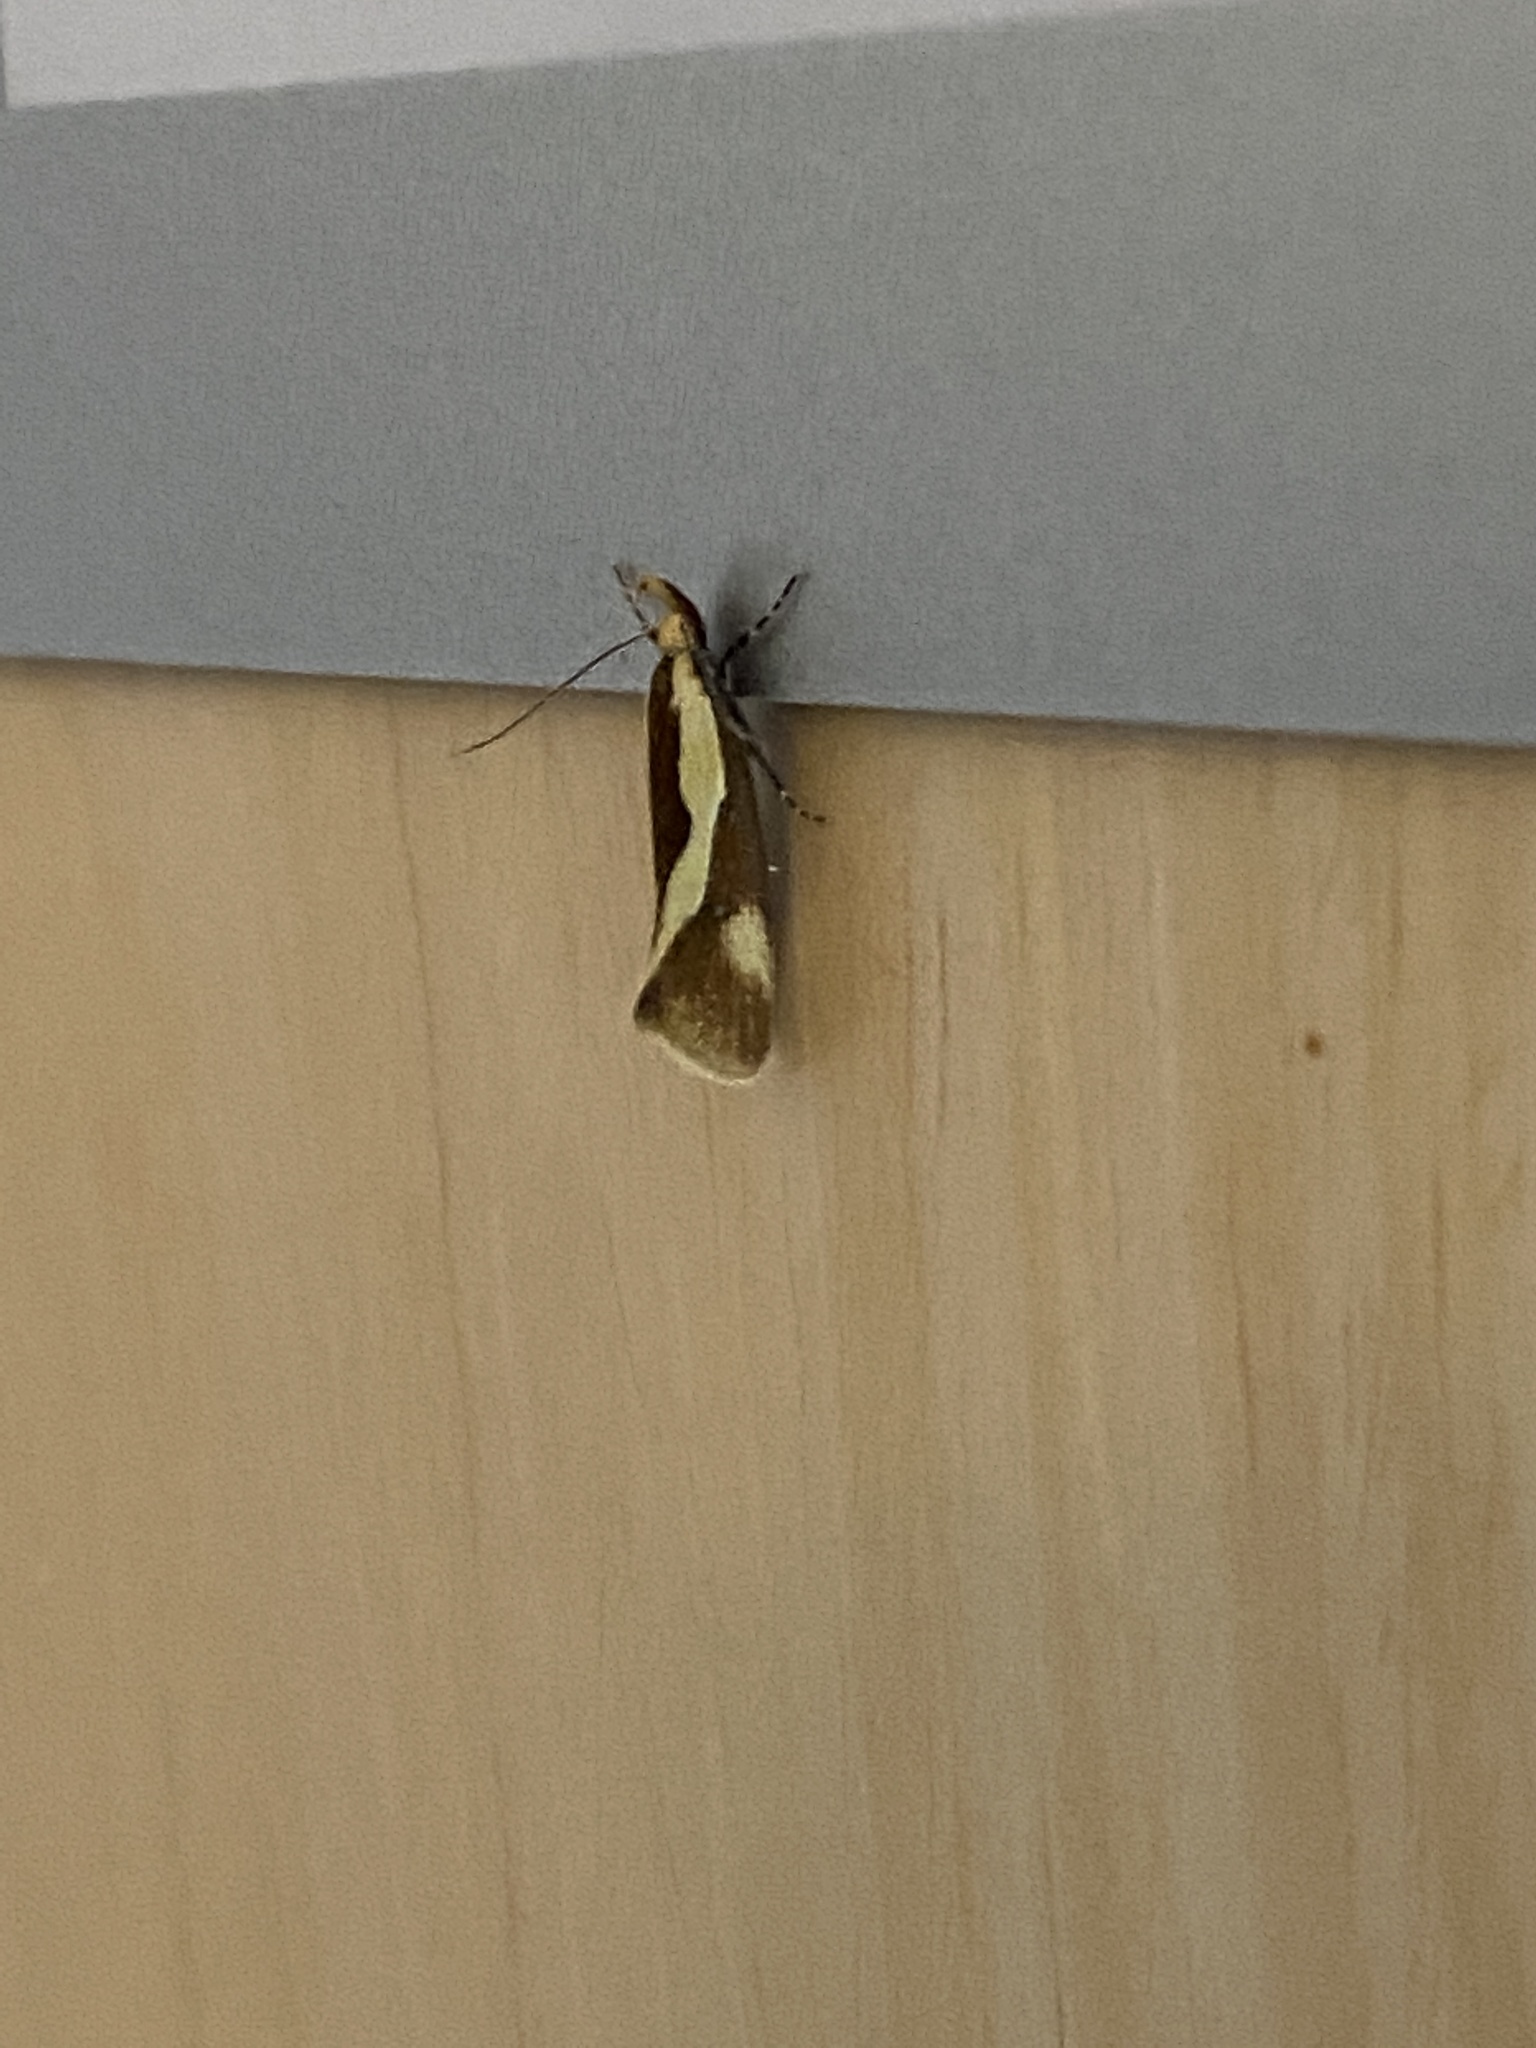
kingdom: Animalia
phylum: Arthropoda
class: Insecta
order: Lepidoptera
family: Oecophoridae
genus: Harpella
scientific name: Harpella forficella
